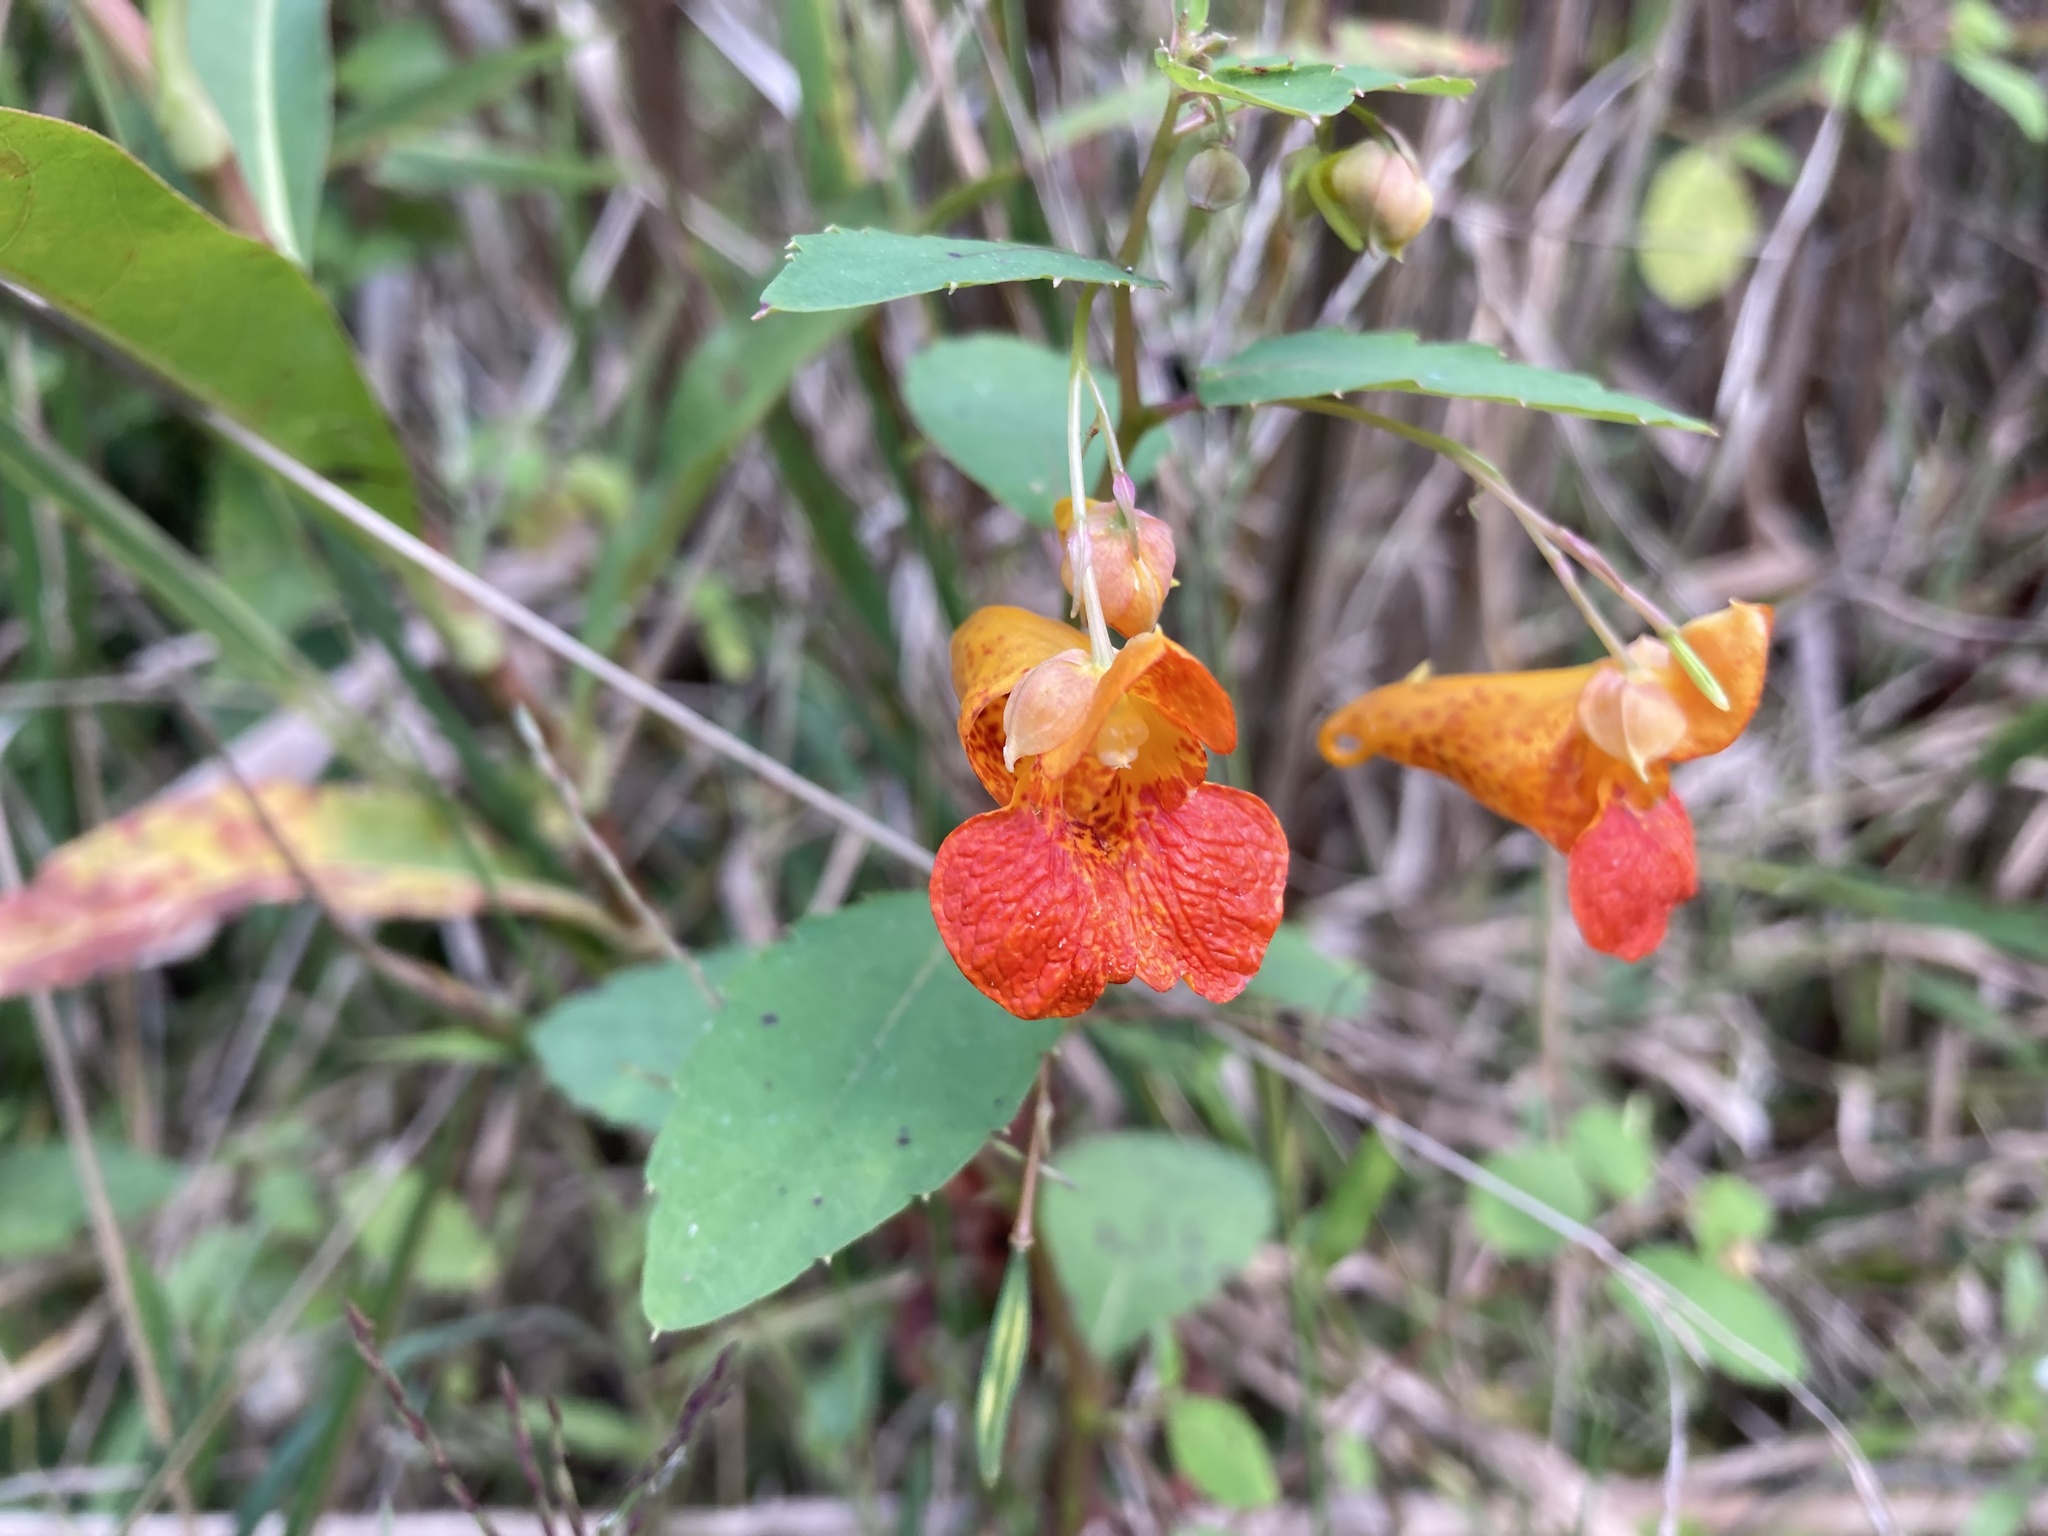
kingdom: Plantae
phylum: Tracheophyta
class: Magnoliopsida
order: Ericales
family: Balsaminaceae
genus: Impatiens
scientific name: Impatiens capensis
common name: Orange balsam
